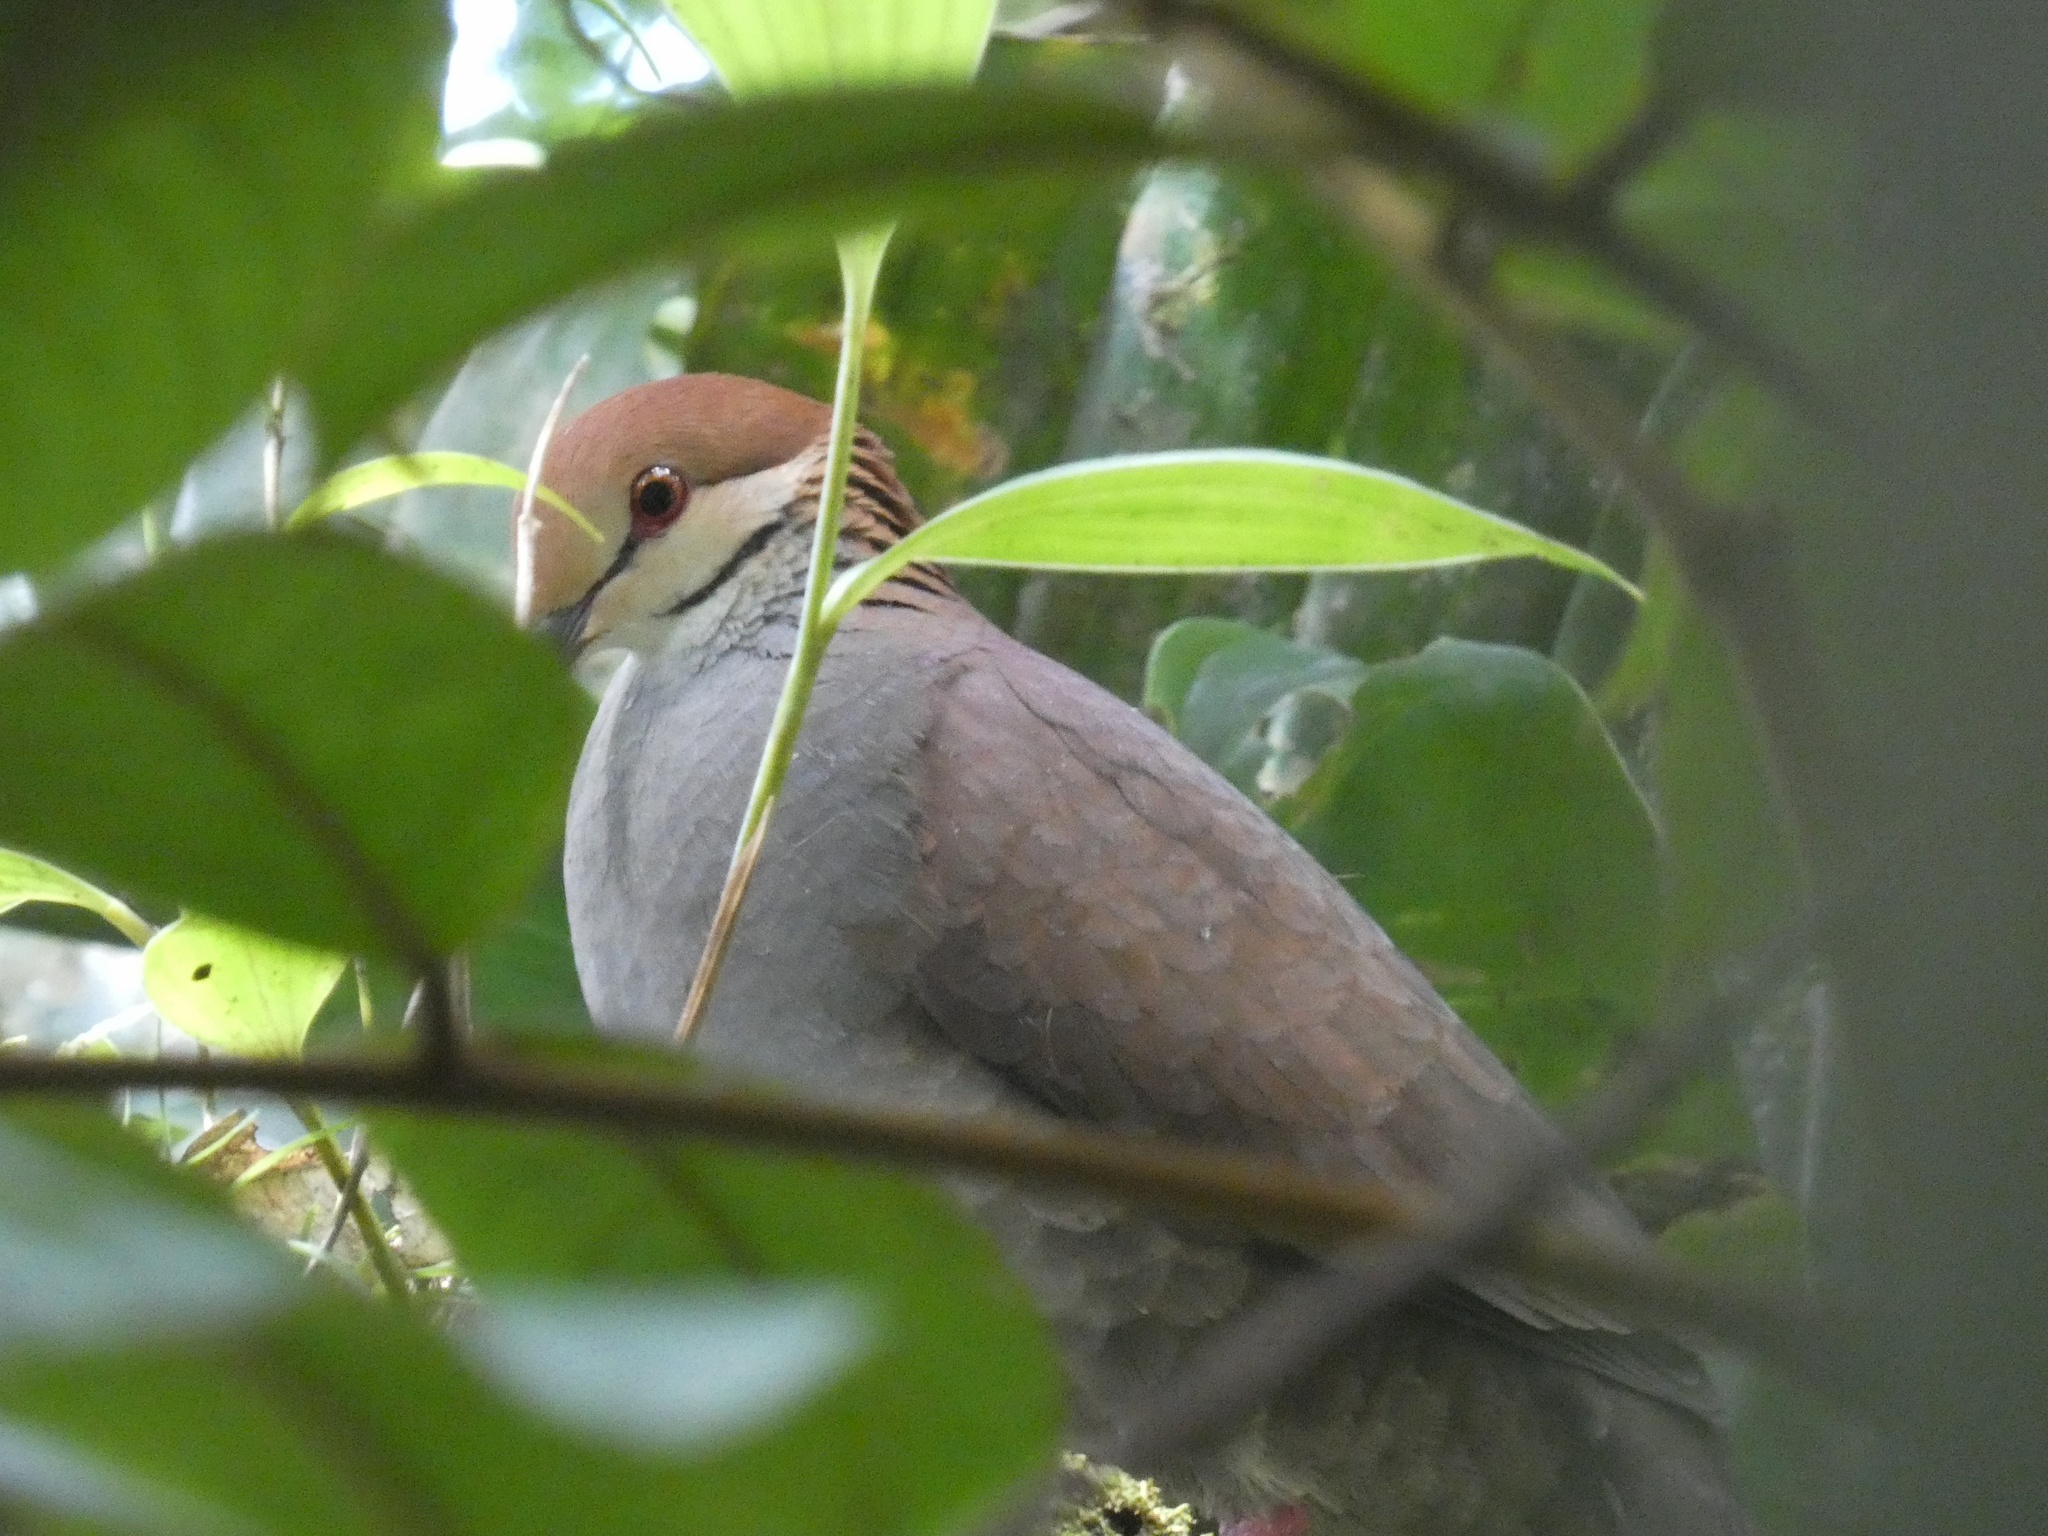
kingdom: Animalia
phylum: Chordata
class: Aves
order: Columbiformes
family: Columbidae
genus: Zentrygon
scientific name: Zentrygon goldmani
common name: Russet-crowned quail-dove
